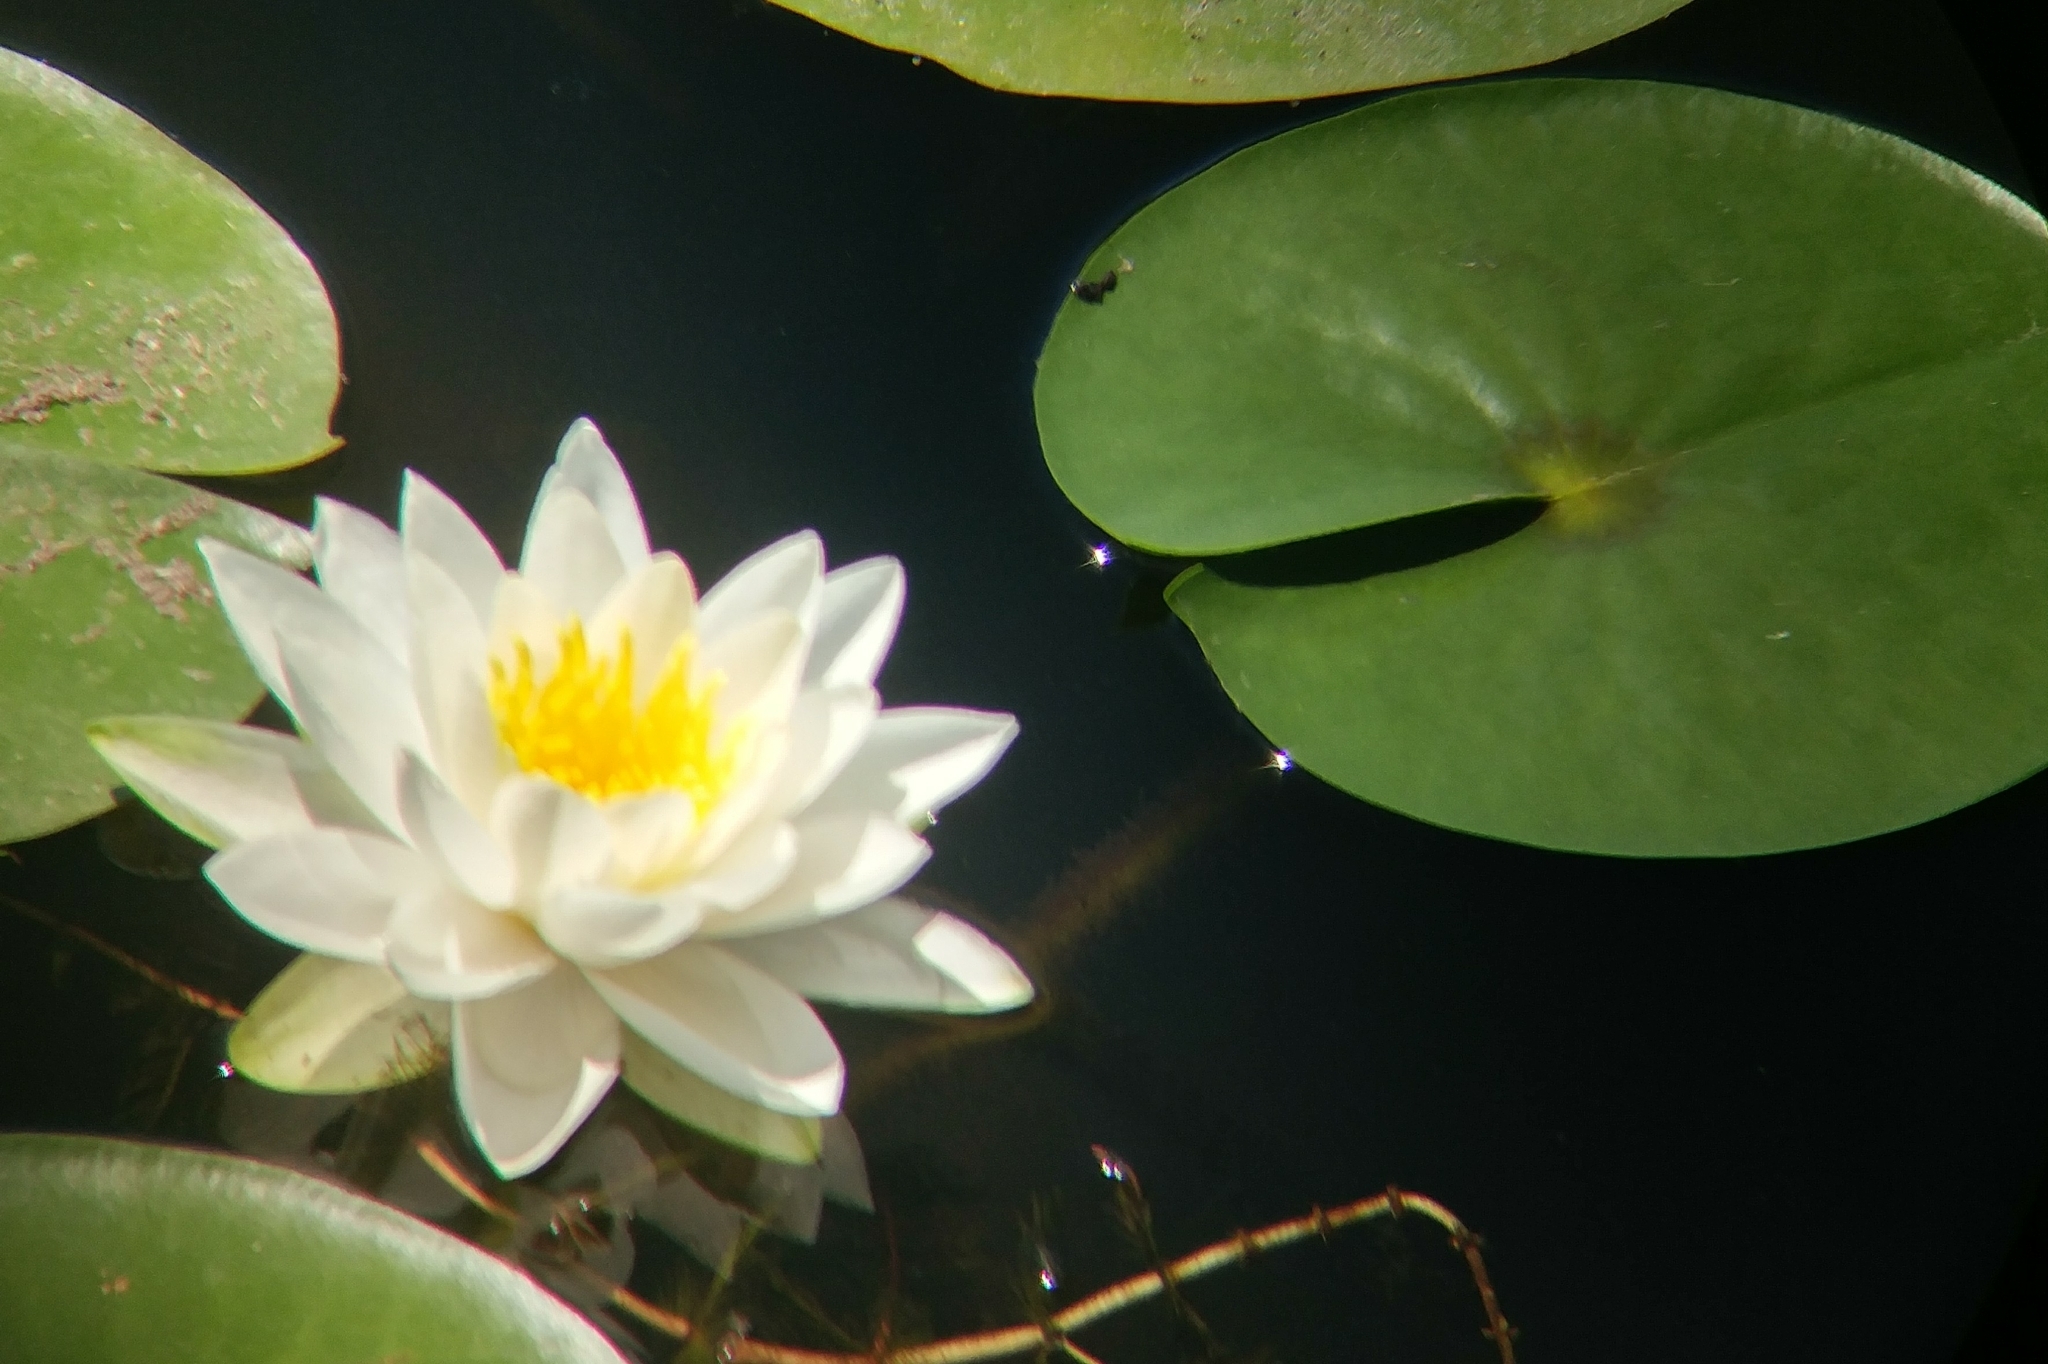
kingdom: Plantae
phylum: Tracheophyta
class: Magnoliopsida
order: Nymphaeales
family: Nymphaeaceae
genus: Nymphaea
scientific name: Nymphaea odorata
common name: Fragrant water-lily
